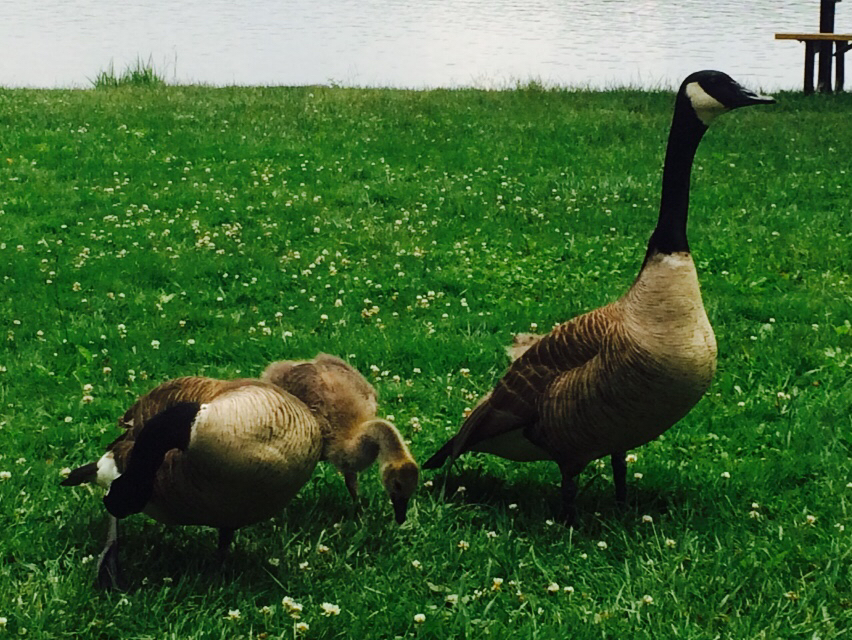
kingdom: Animalia
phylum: Chordata
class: Aves
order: Anseriformes
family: Anatidae
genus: Branta
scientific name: Branta canadensis
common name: Canada goose
